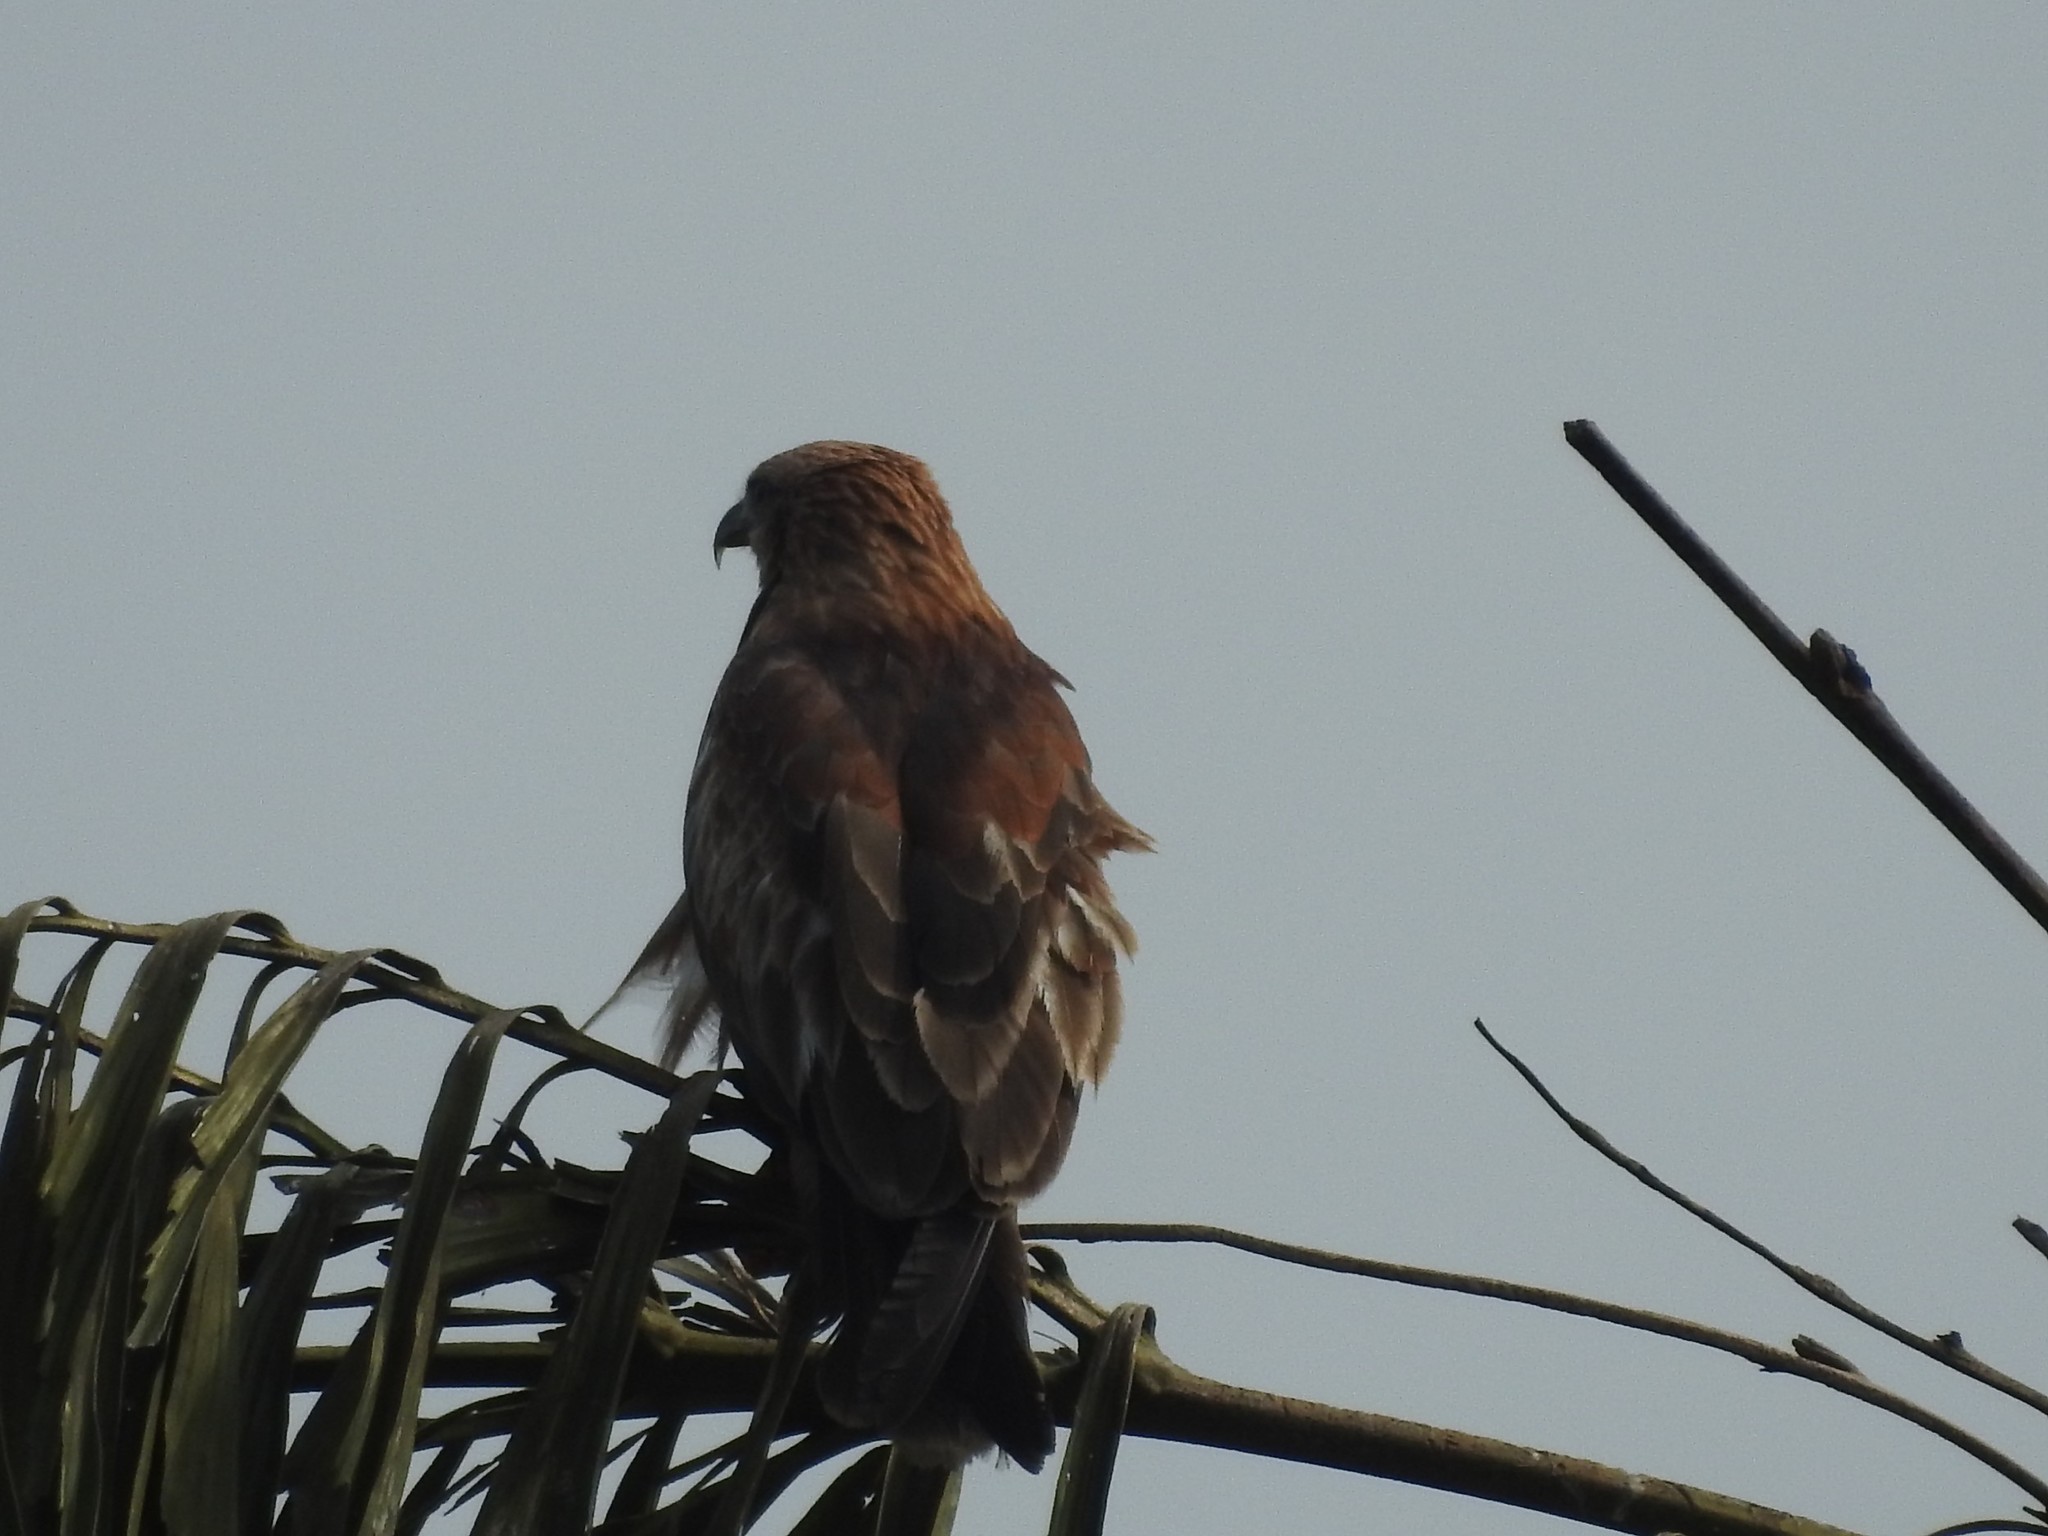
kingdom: Animalia
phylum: Chordata
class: Aves
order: Accipitriformes
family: Accipitridae
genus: Haliastur
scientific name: Haliastur indus
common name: Brahminy kite
